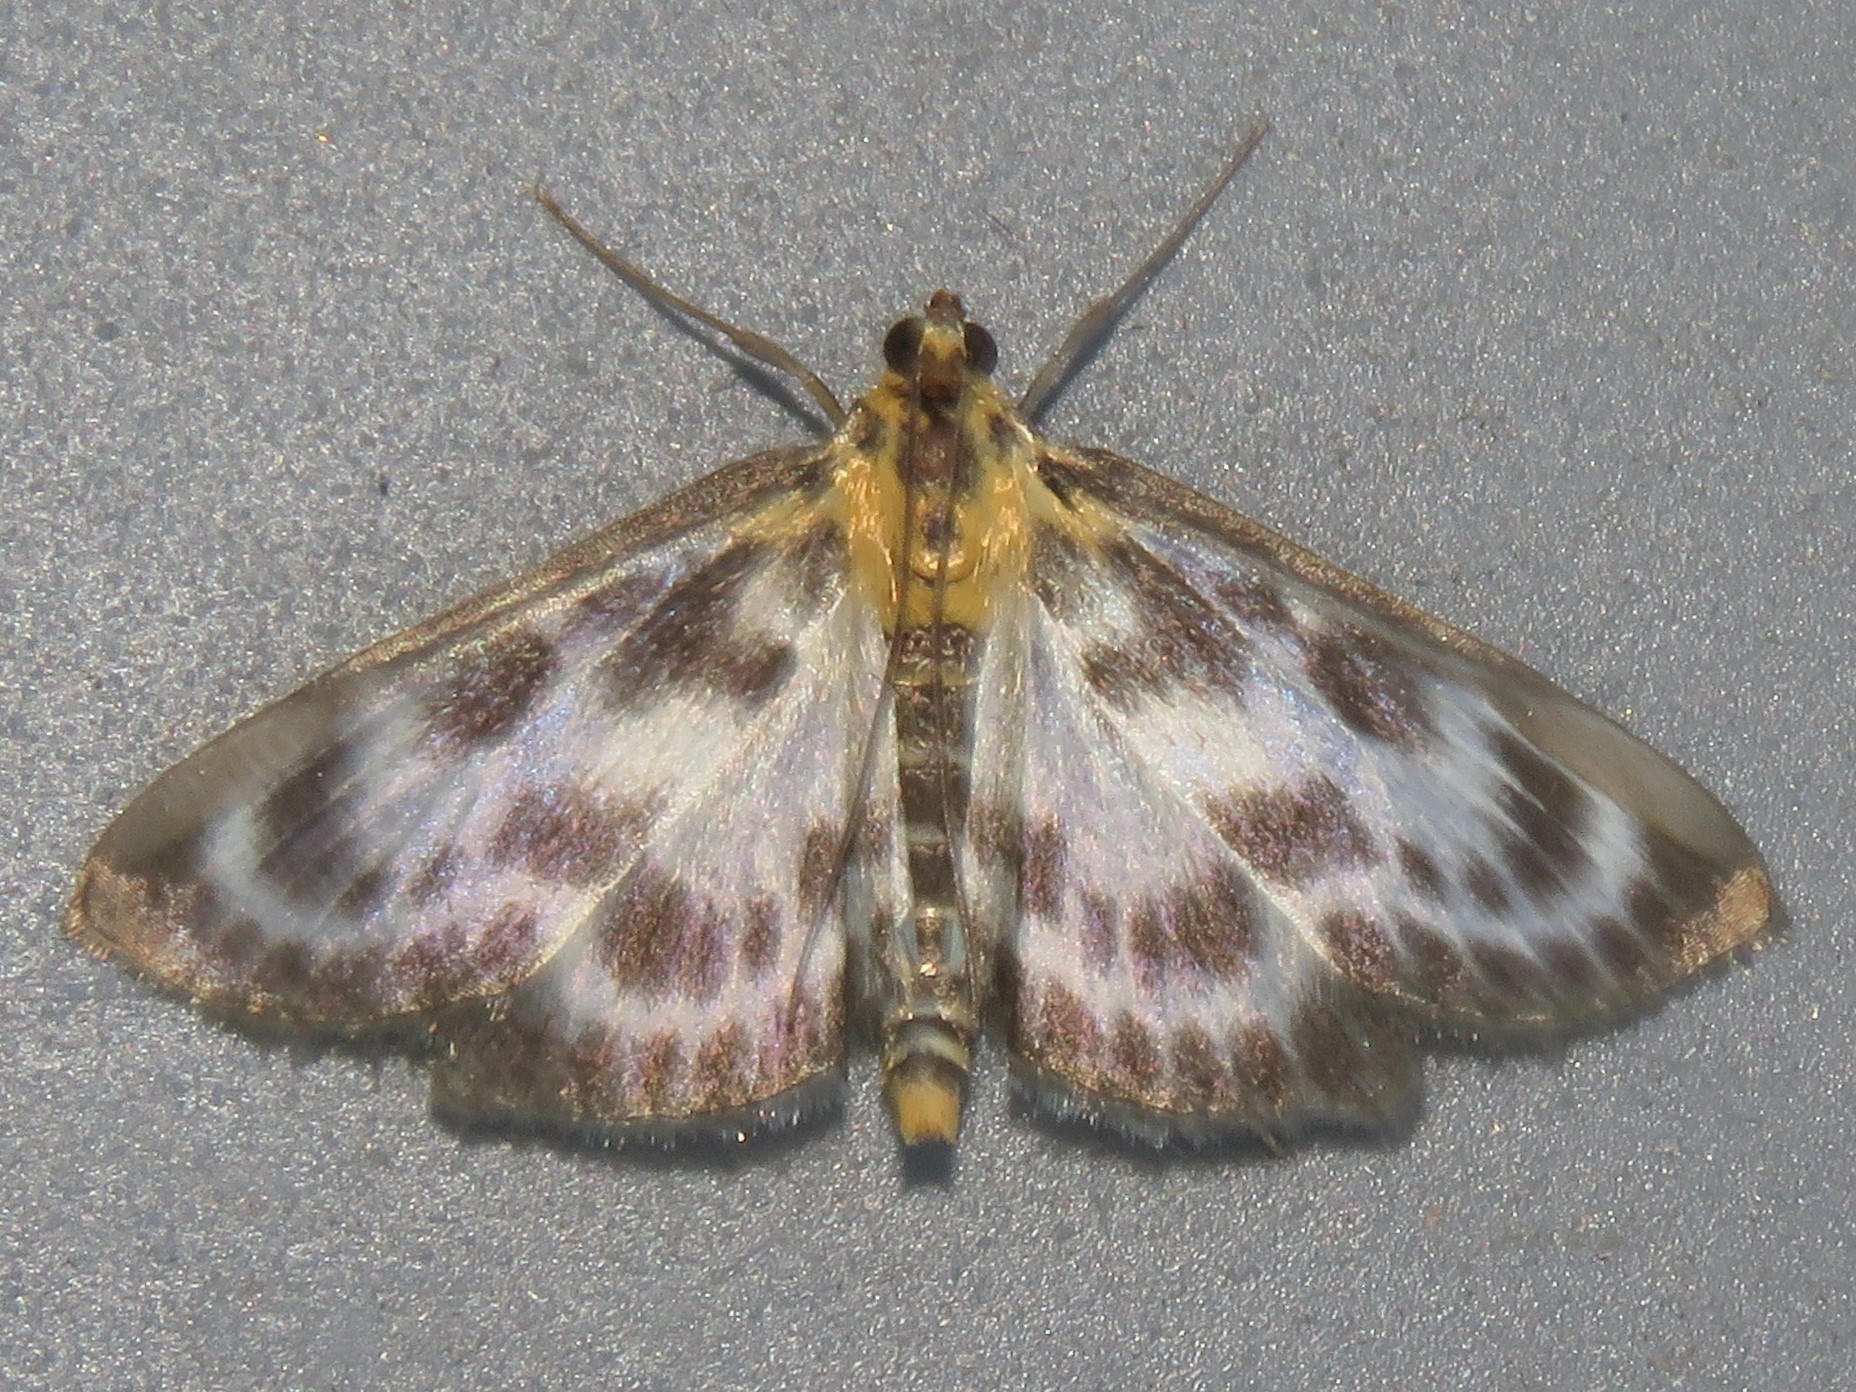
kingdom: Animalia
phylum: Arthropoda
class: Insecta
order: Lepidoptera
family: Crambidae
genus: Anania
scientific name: Anania hortulata
